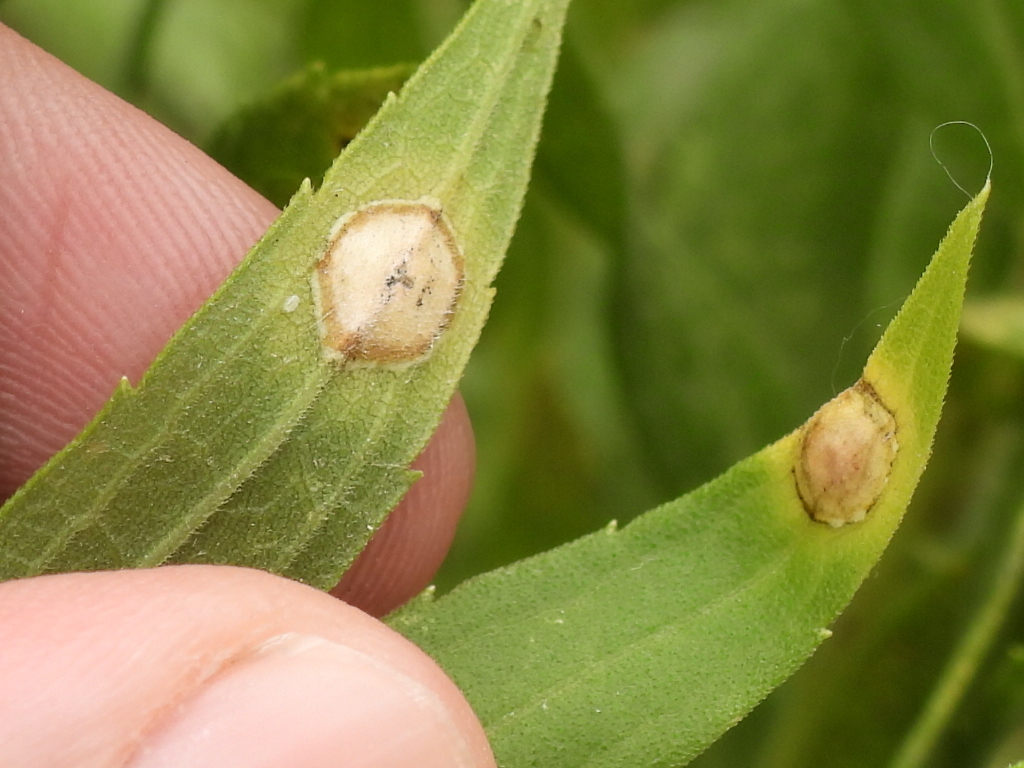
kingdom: Animalia
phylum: Arthropoda
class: Insecta
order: Diptera
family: Cecidomyiidae
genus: Asteromyia
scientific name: Asteromyia carbonifera
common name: Carbonifera goldenrod gall midge
